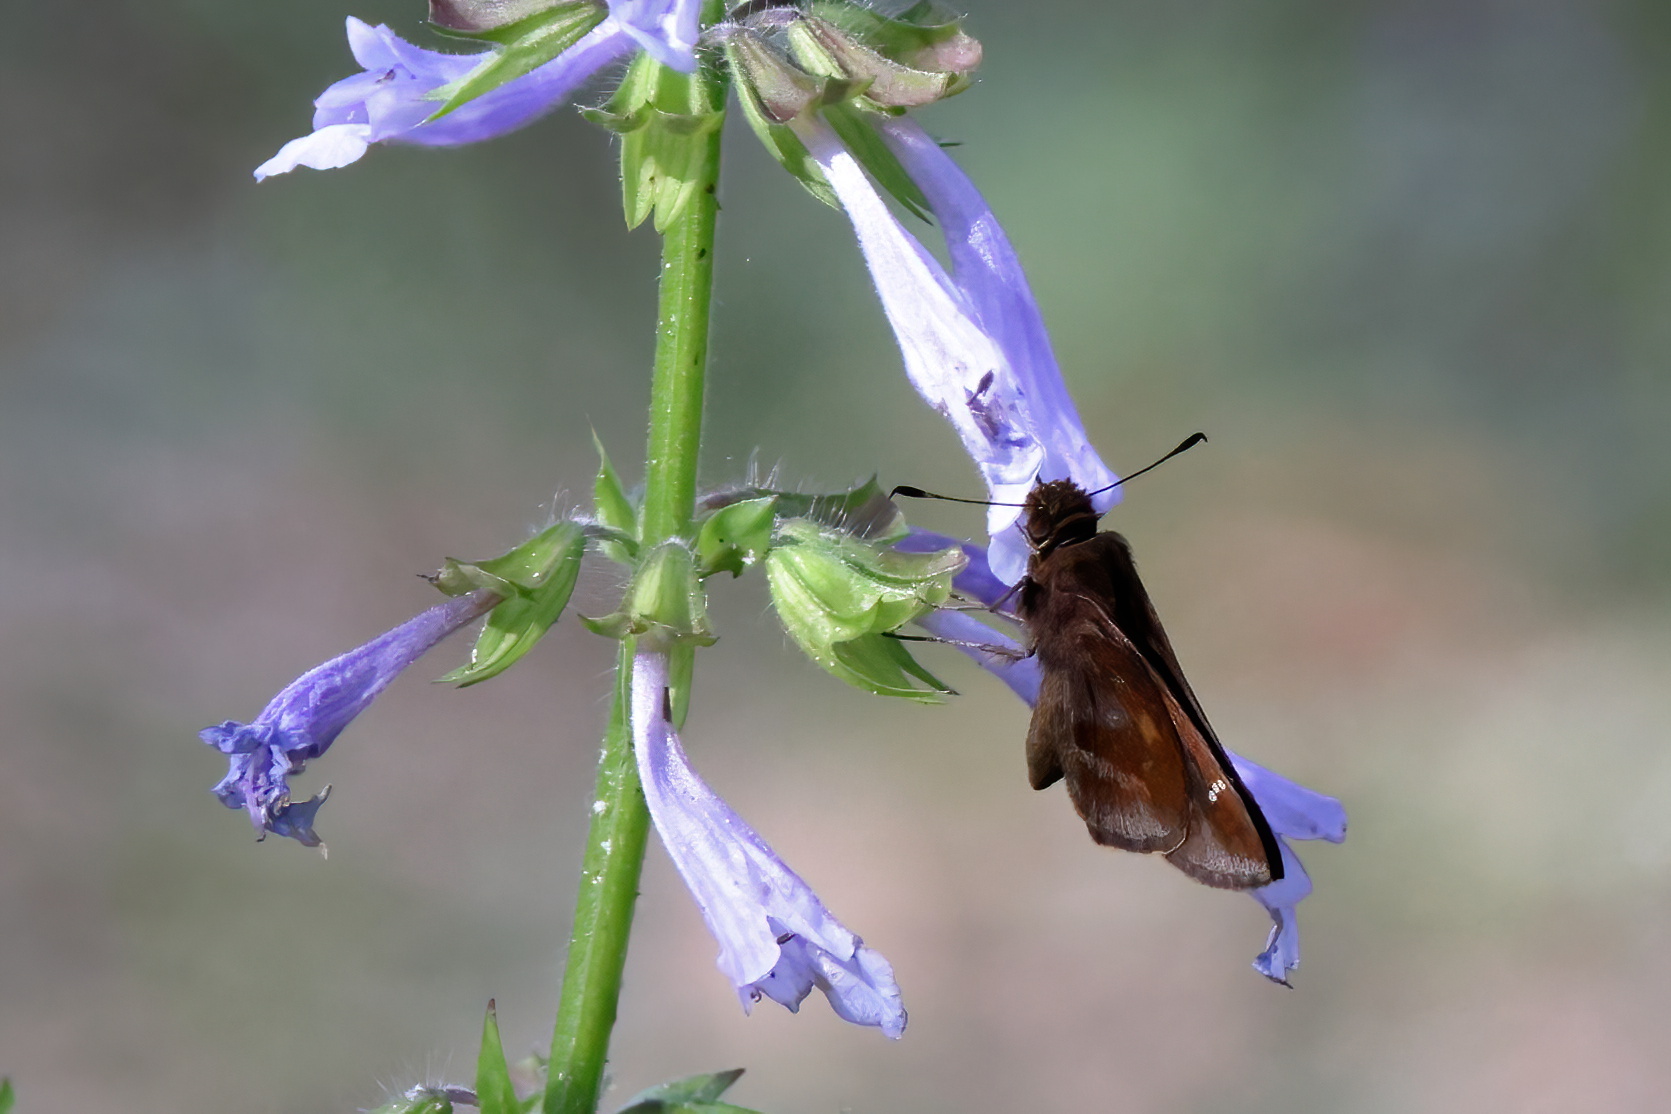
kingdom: Animalia
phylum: Arthropoda
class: Insecta
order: Lepidoptera
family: Hesperiidae
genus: Lerema
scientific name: Lerema accius
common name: Clouded skipper
